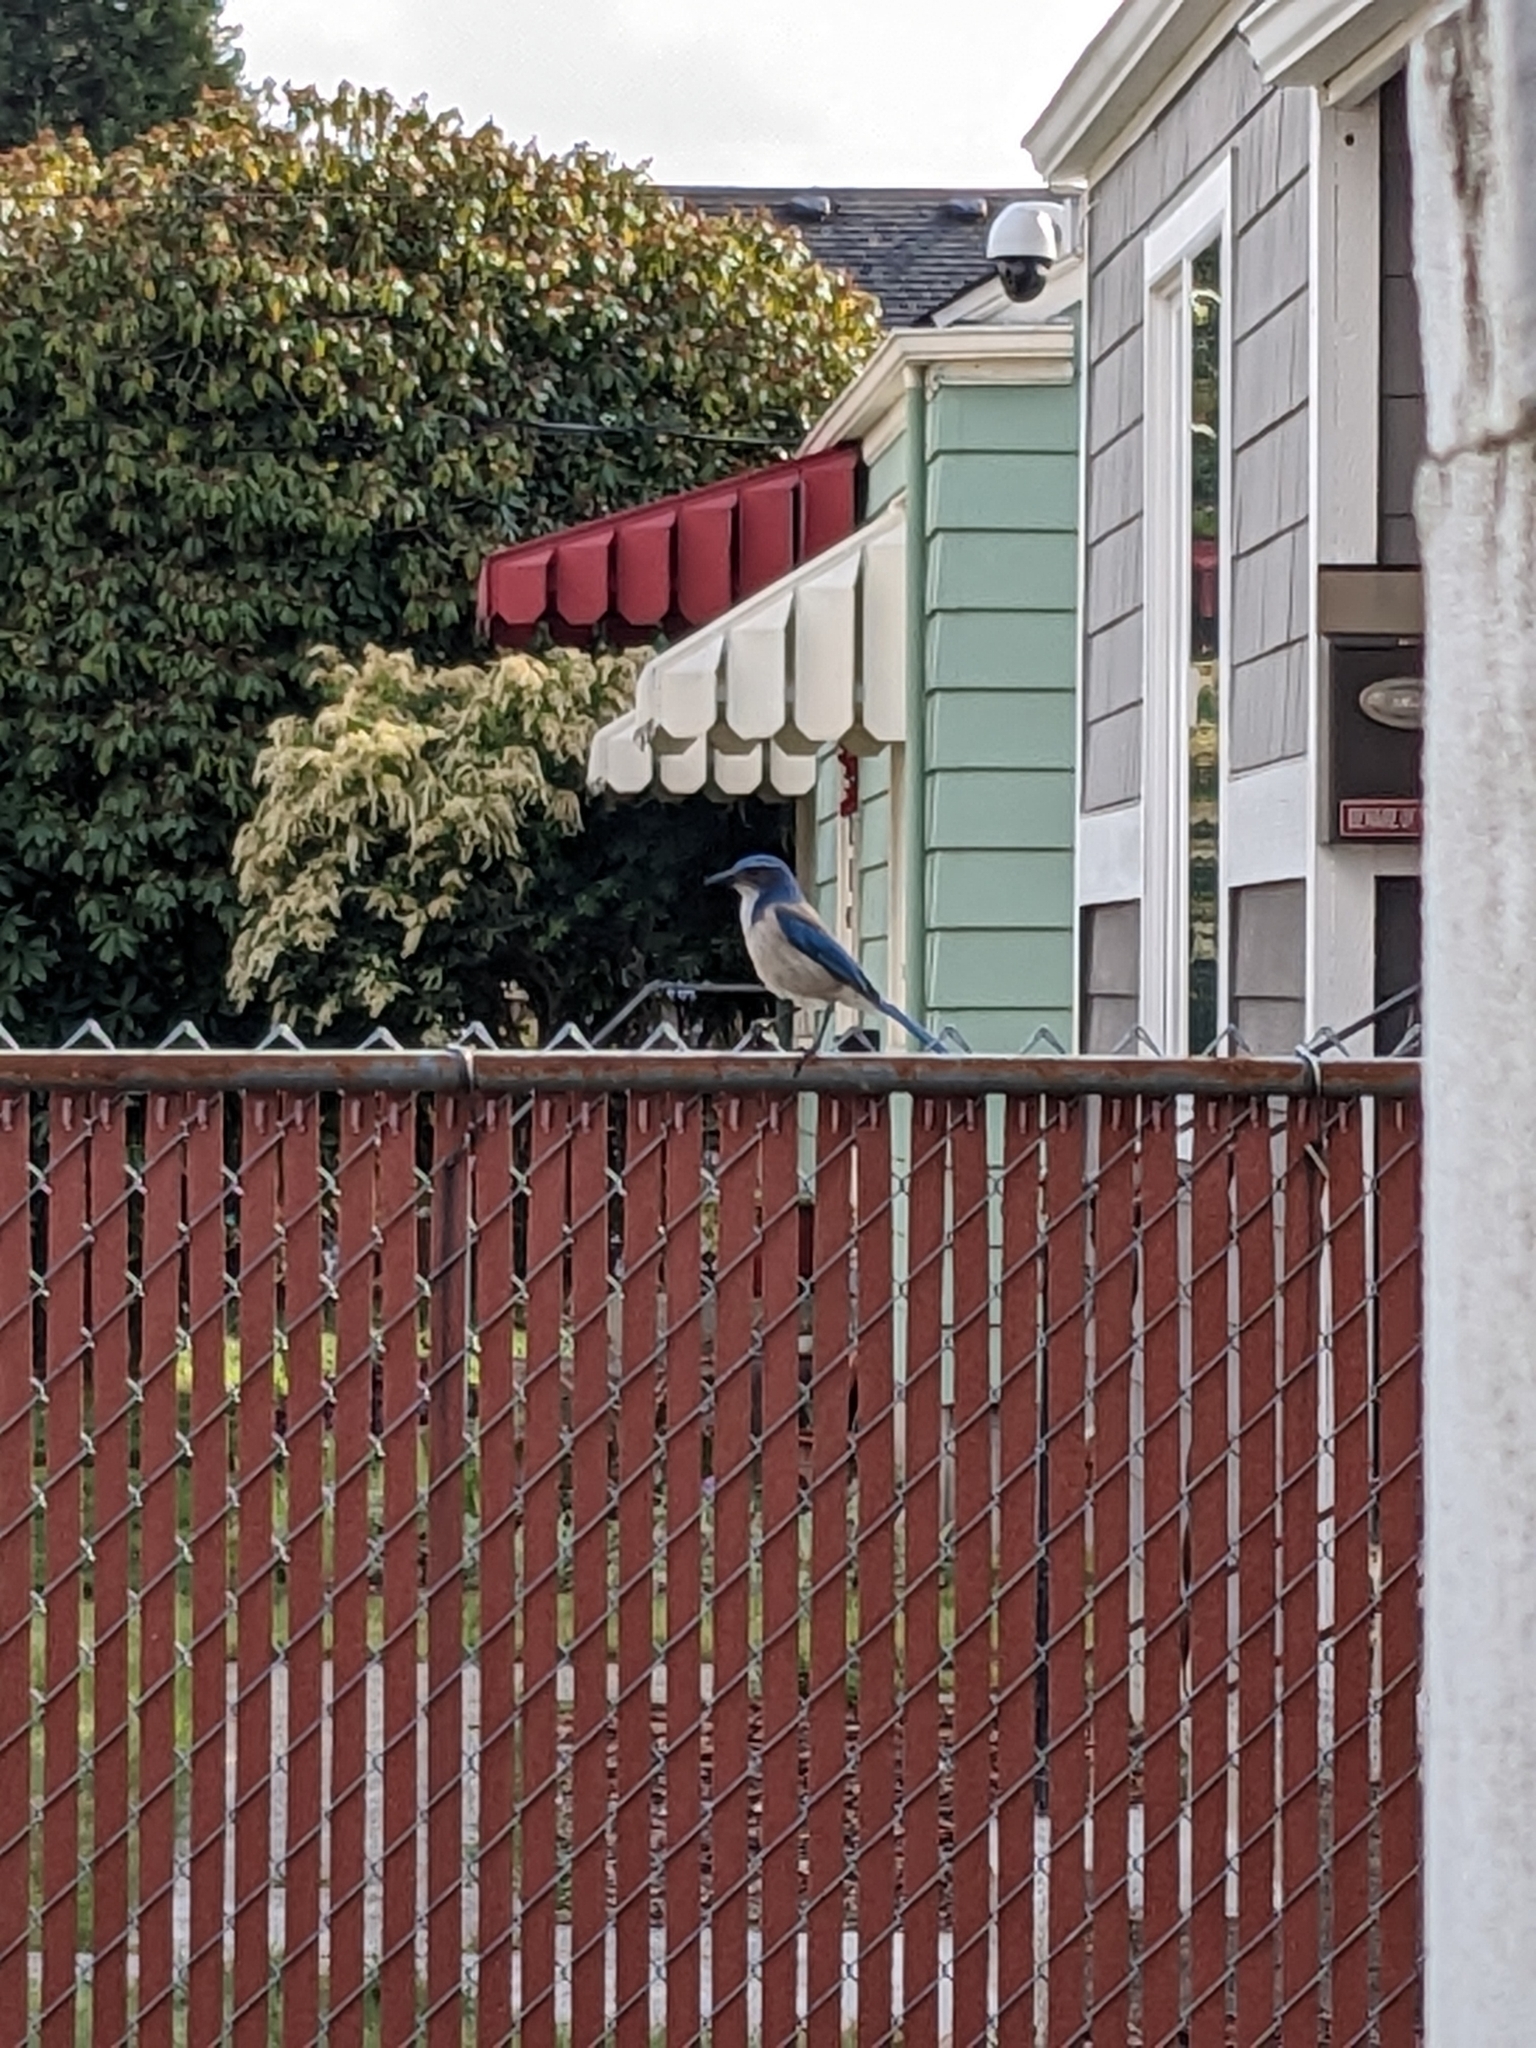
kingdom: Animalia
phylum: Chordata
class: Aves
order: Passeriformes
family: Corvidae
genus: Aphelocoma
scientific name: Aphelocoma californica
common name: California scrub-jay
